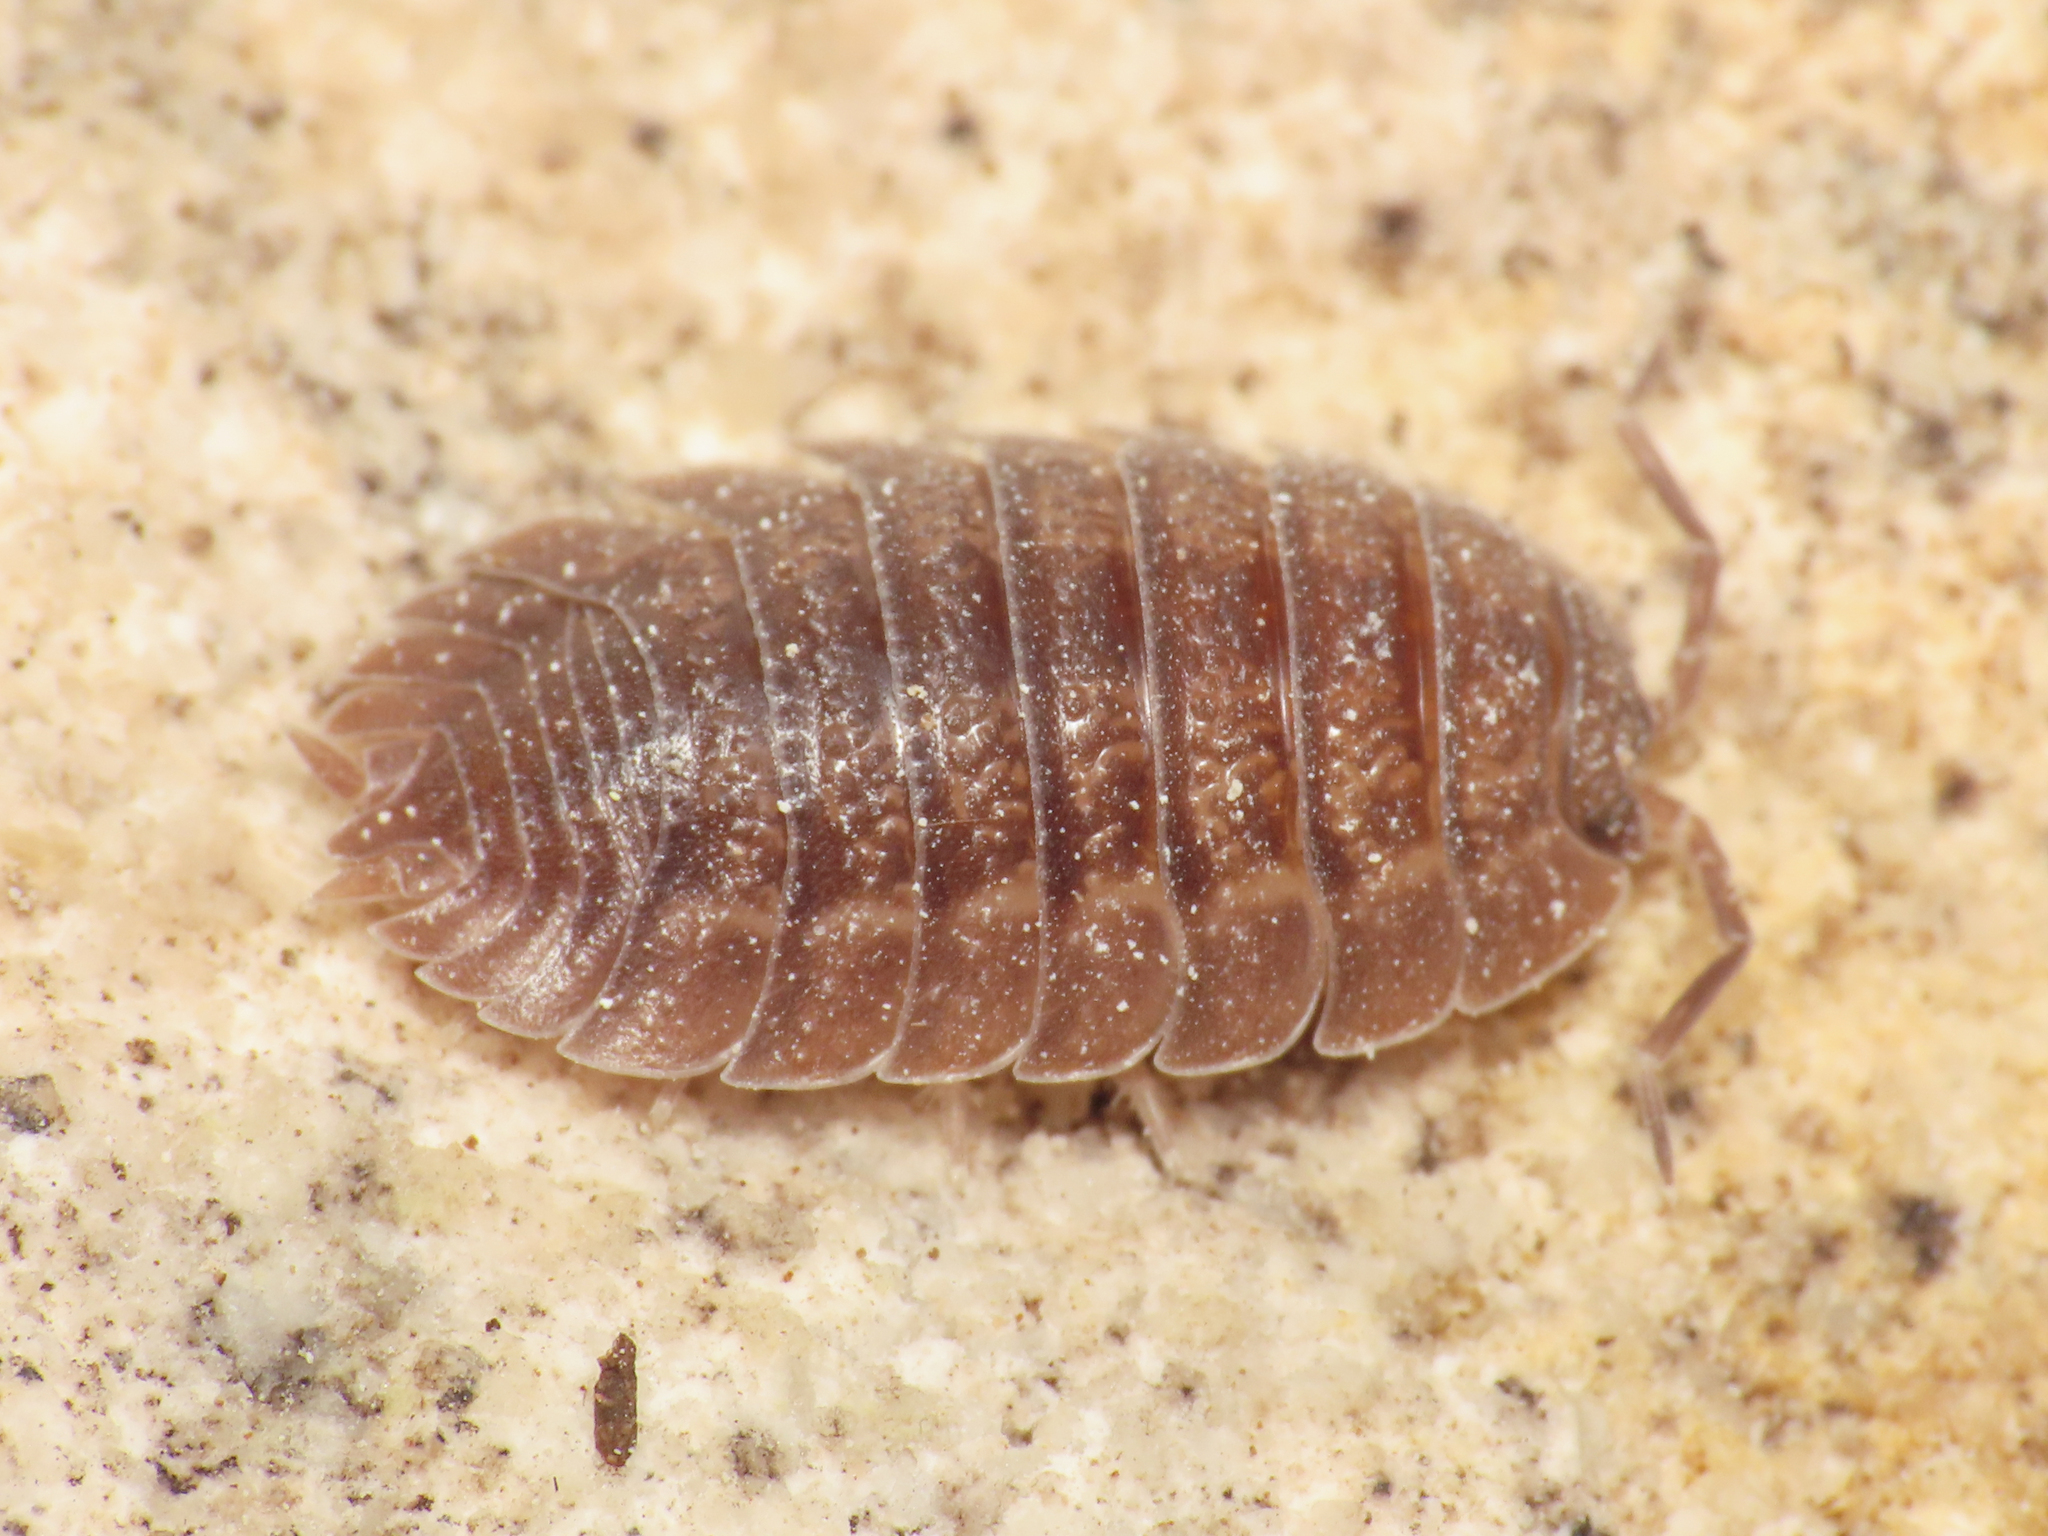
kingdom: Animalia
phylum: Arthropoda
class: Malacostraca
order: Isopoda
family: Porcellionidae
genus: Porcellio
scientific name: Porcellio dilatatus
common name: Isopod
